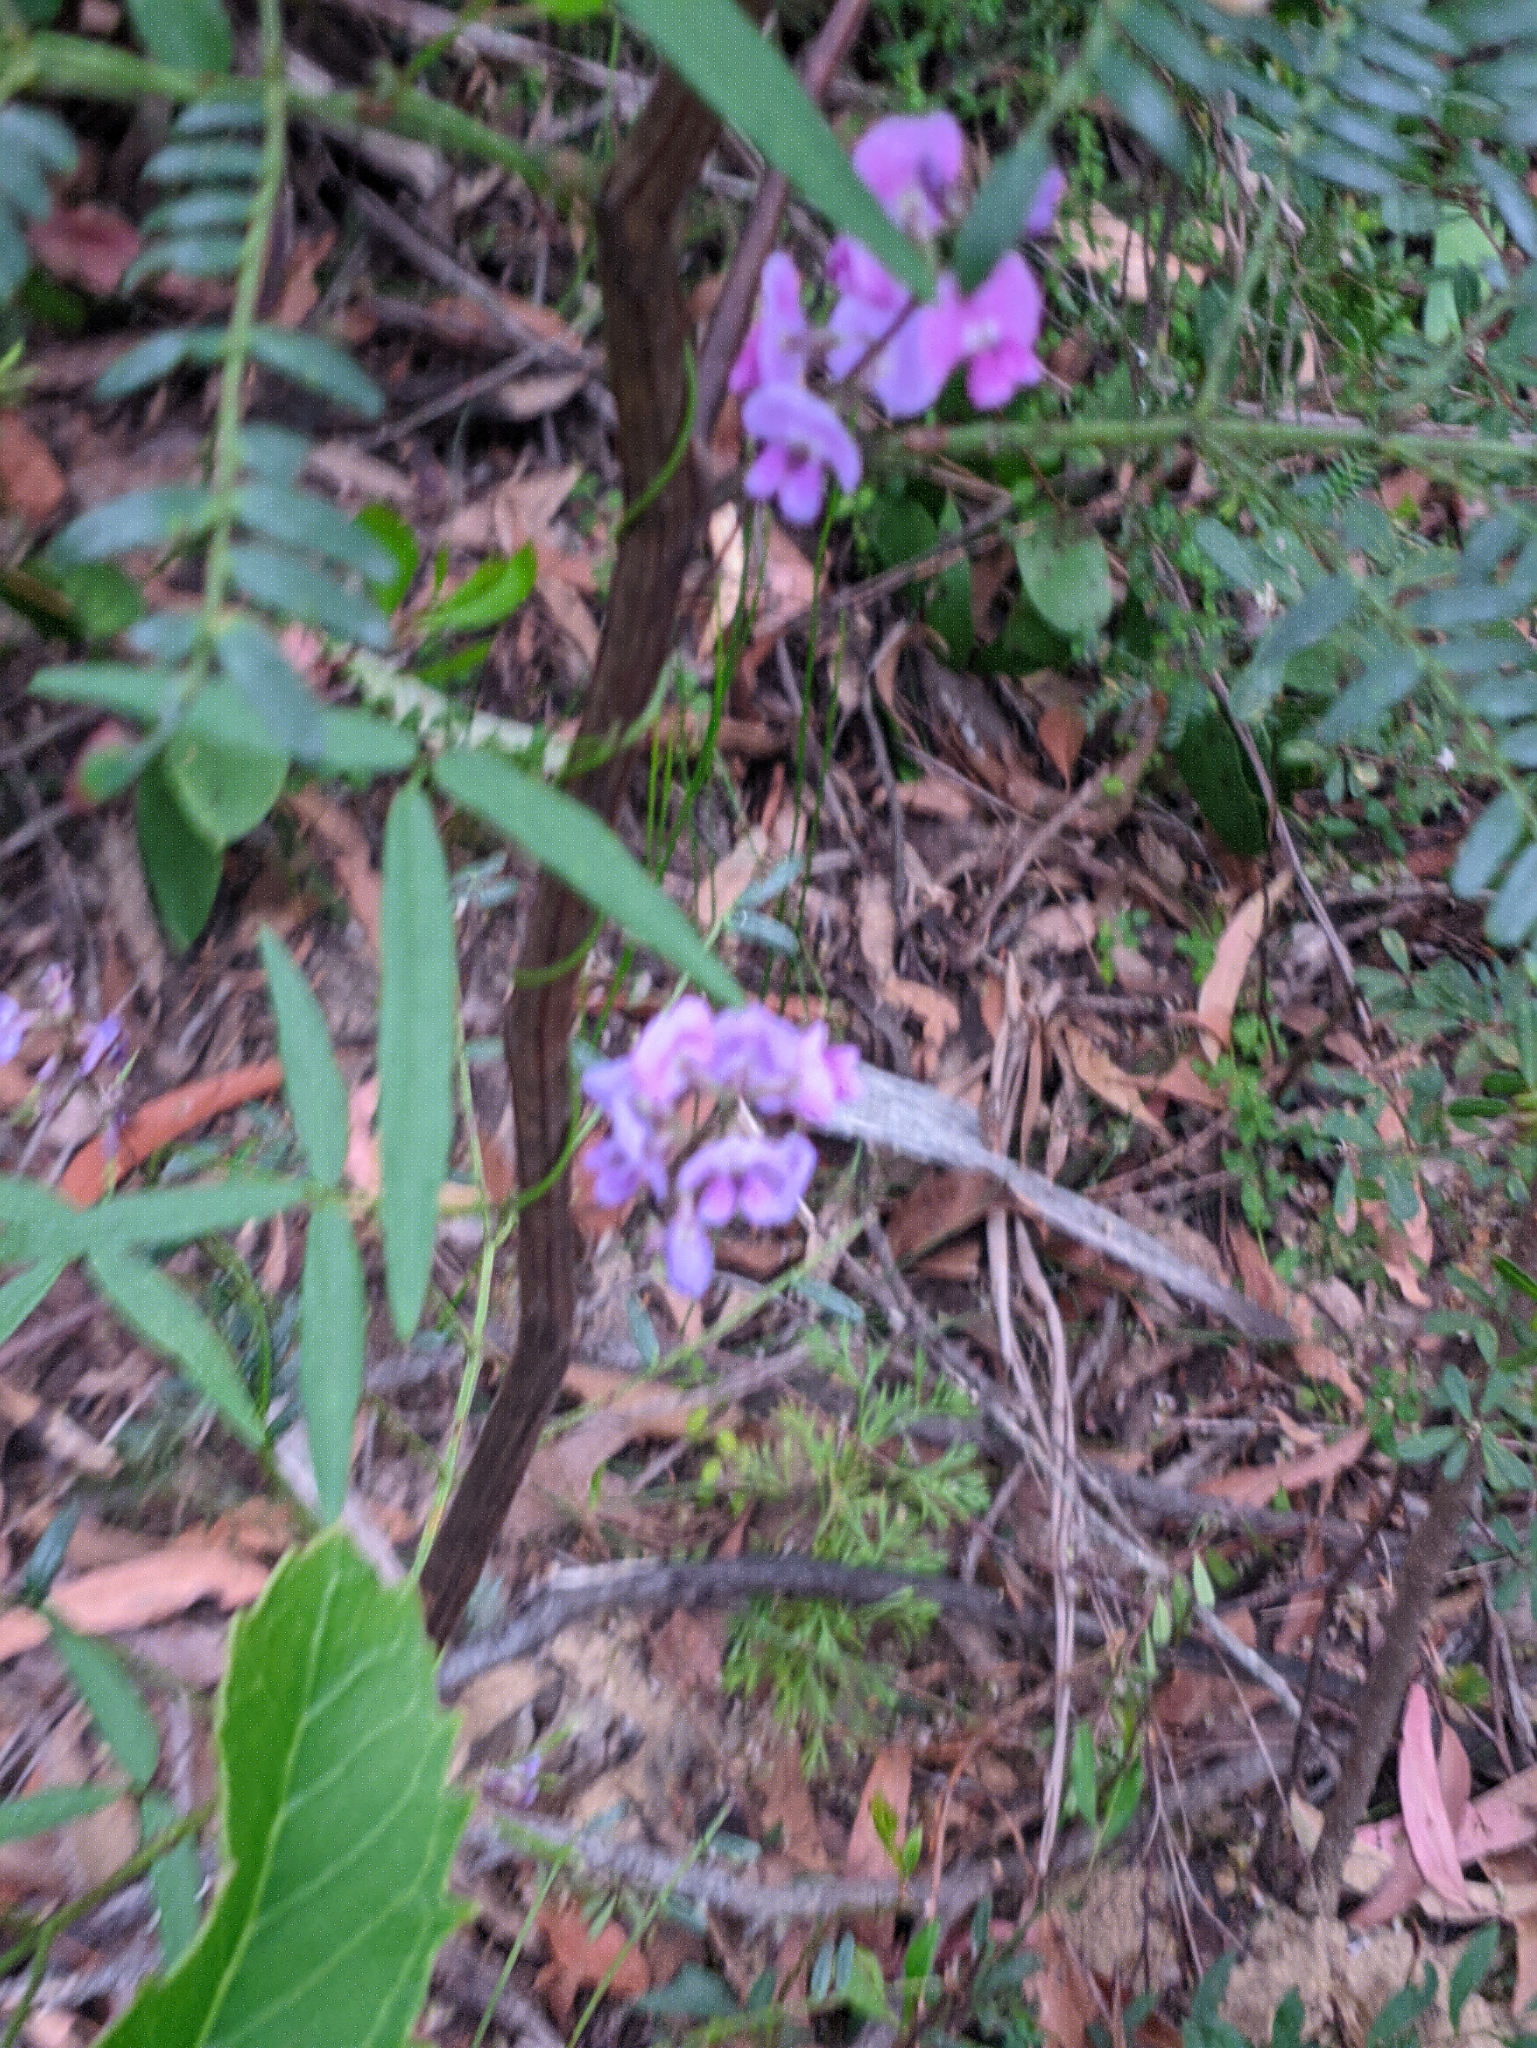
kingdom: Plantae
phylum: Tracheophyta
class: Magnoliopsida
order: Fabales
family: Fabaceae
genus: Glycine
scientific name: Glycine clandestina
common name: Twining glycine
